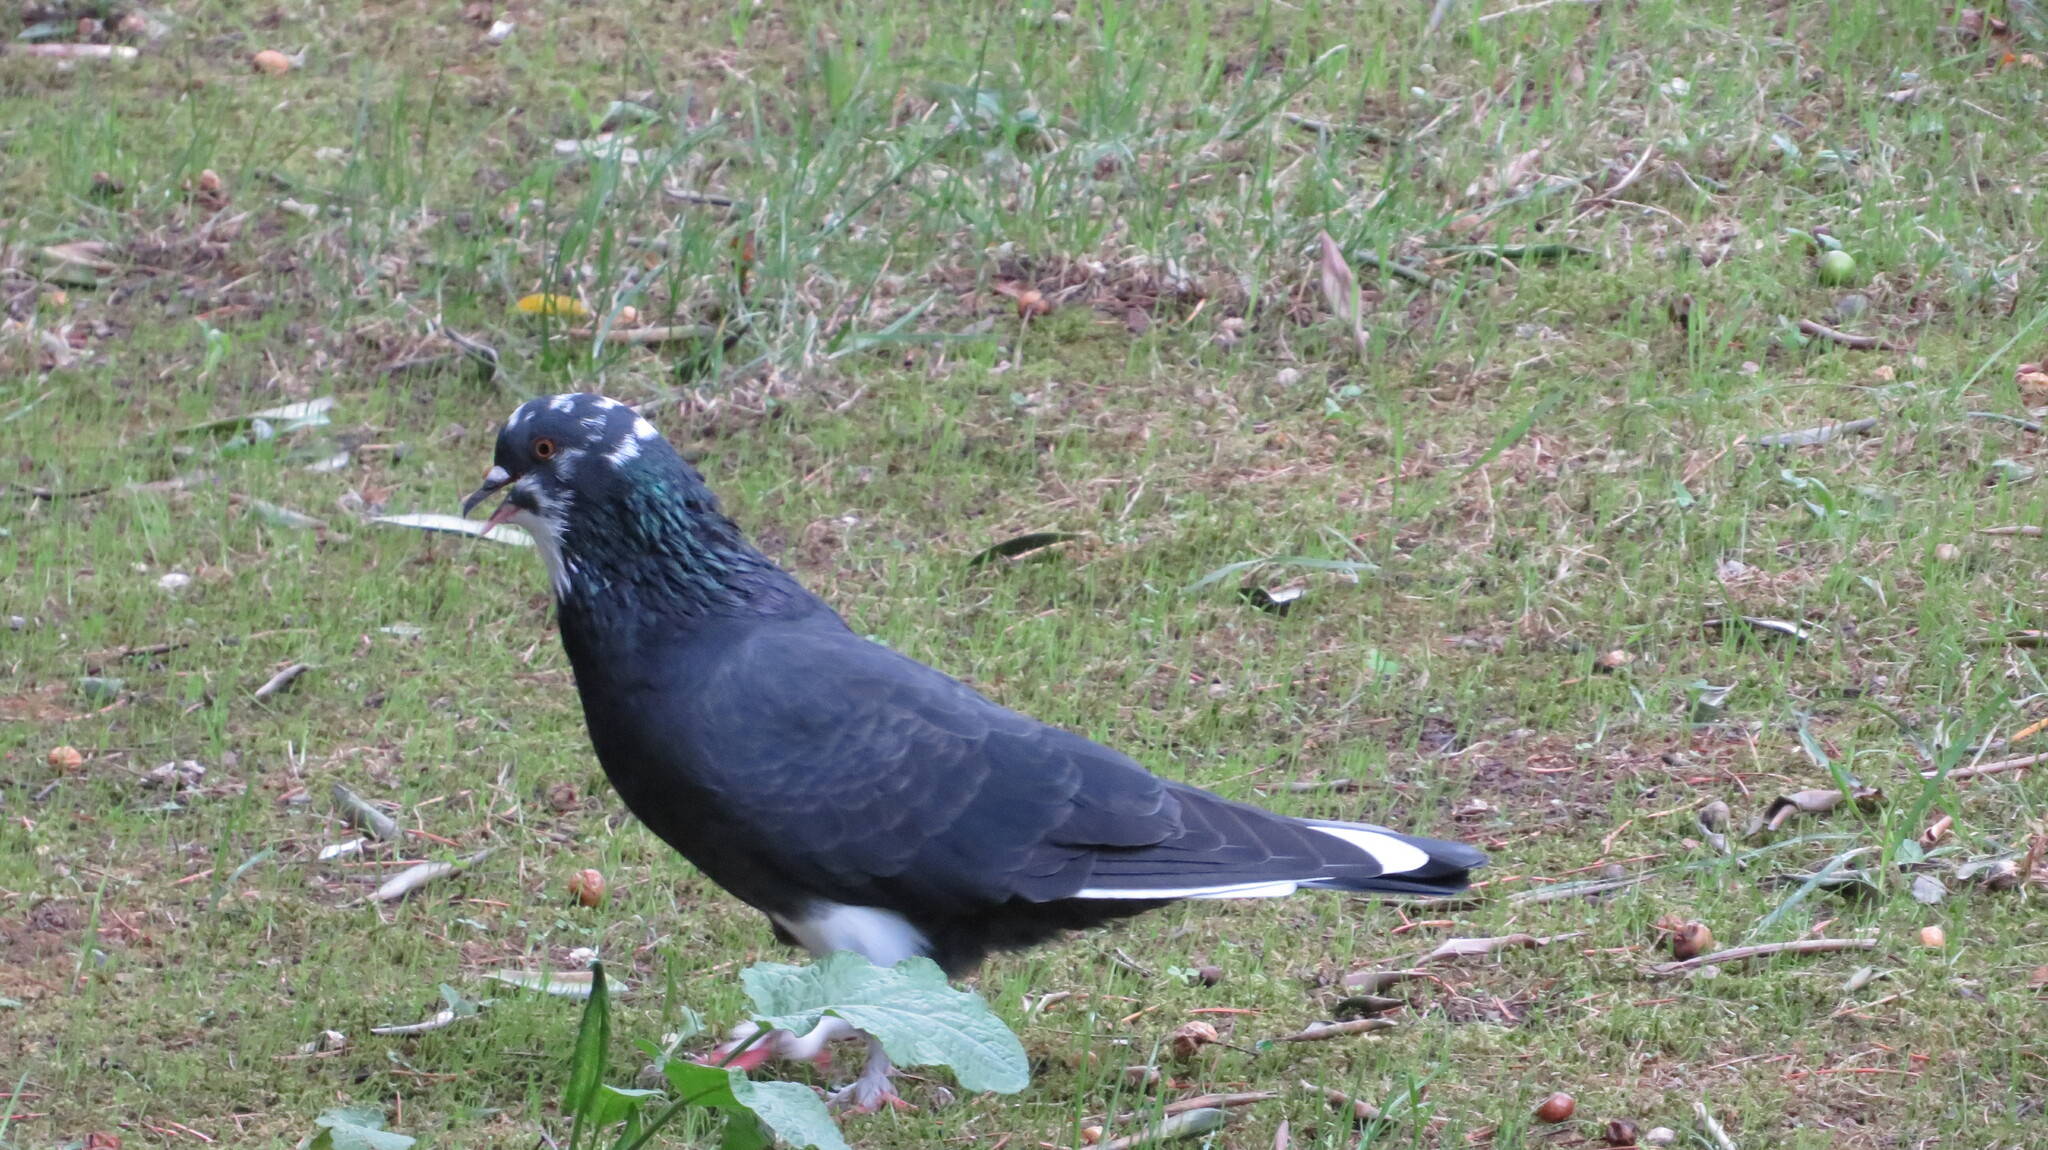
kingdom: Animalia
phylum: Chordata
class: Aves
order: Columbiformes
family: Columbidae
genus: Columba
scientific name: Columba livia
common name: Rock pigeon
